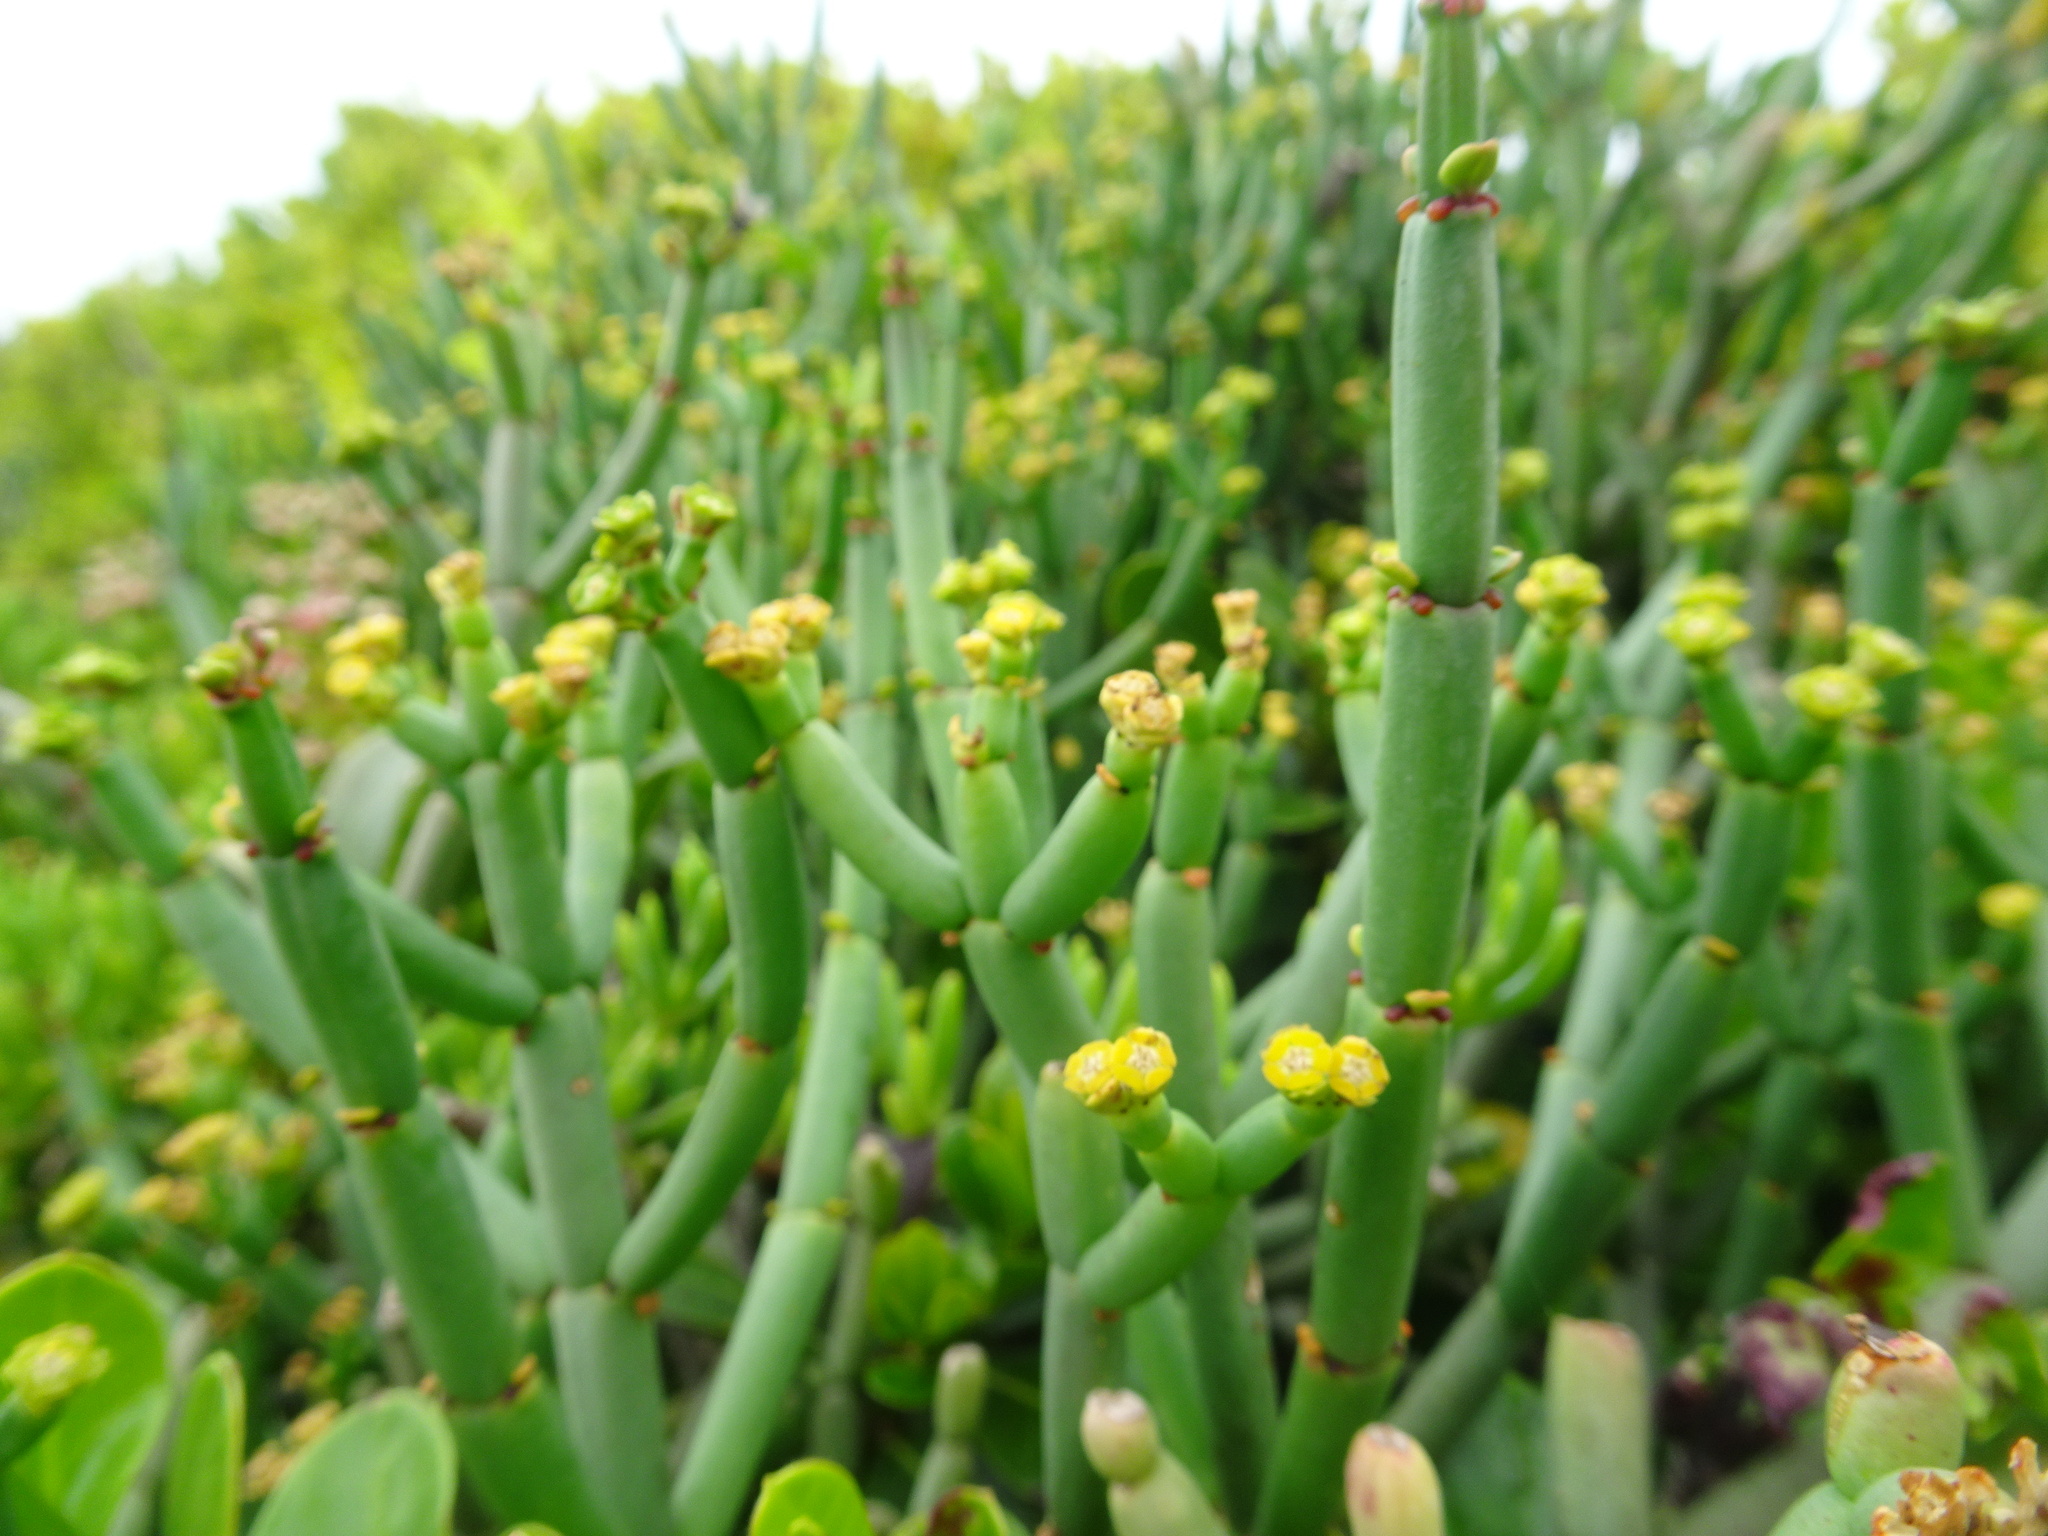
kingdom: Plantae
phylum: Tracheophyta
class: Magnoliopsida
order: Malpighiales
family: Euphorbiaceae
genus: Euphorbia
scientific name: Euphorbia burmanni
